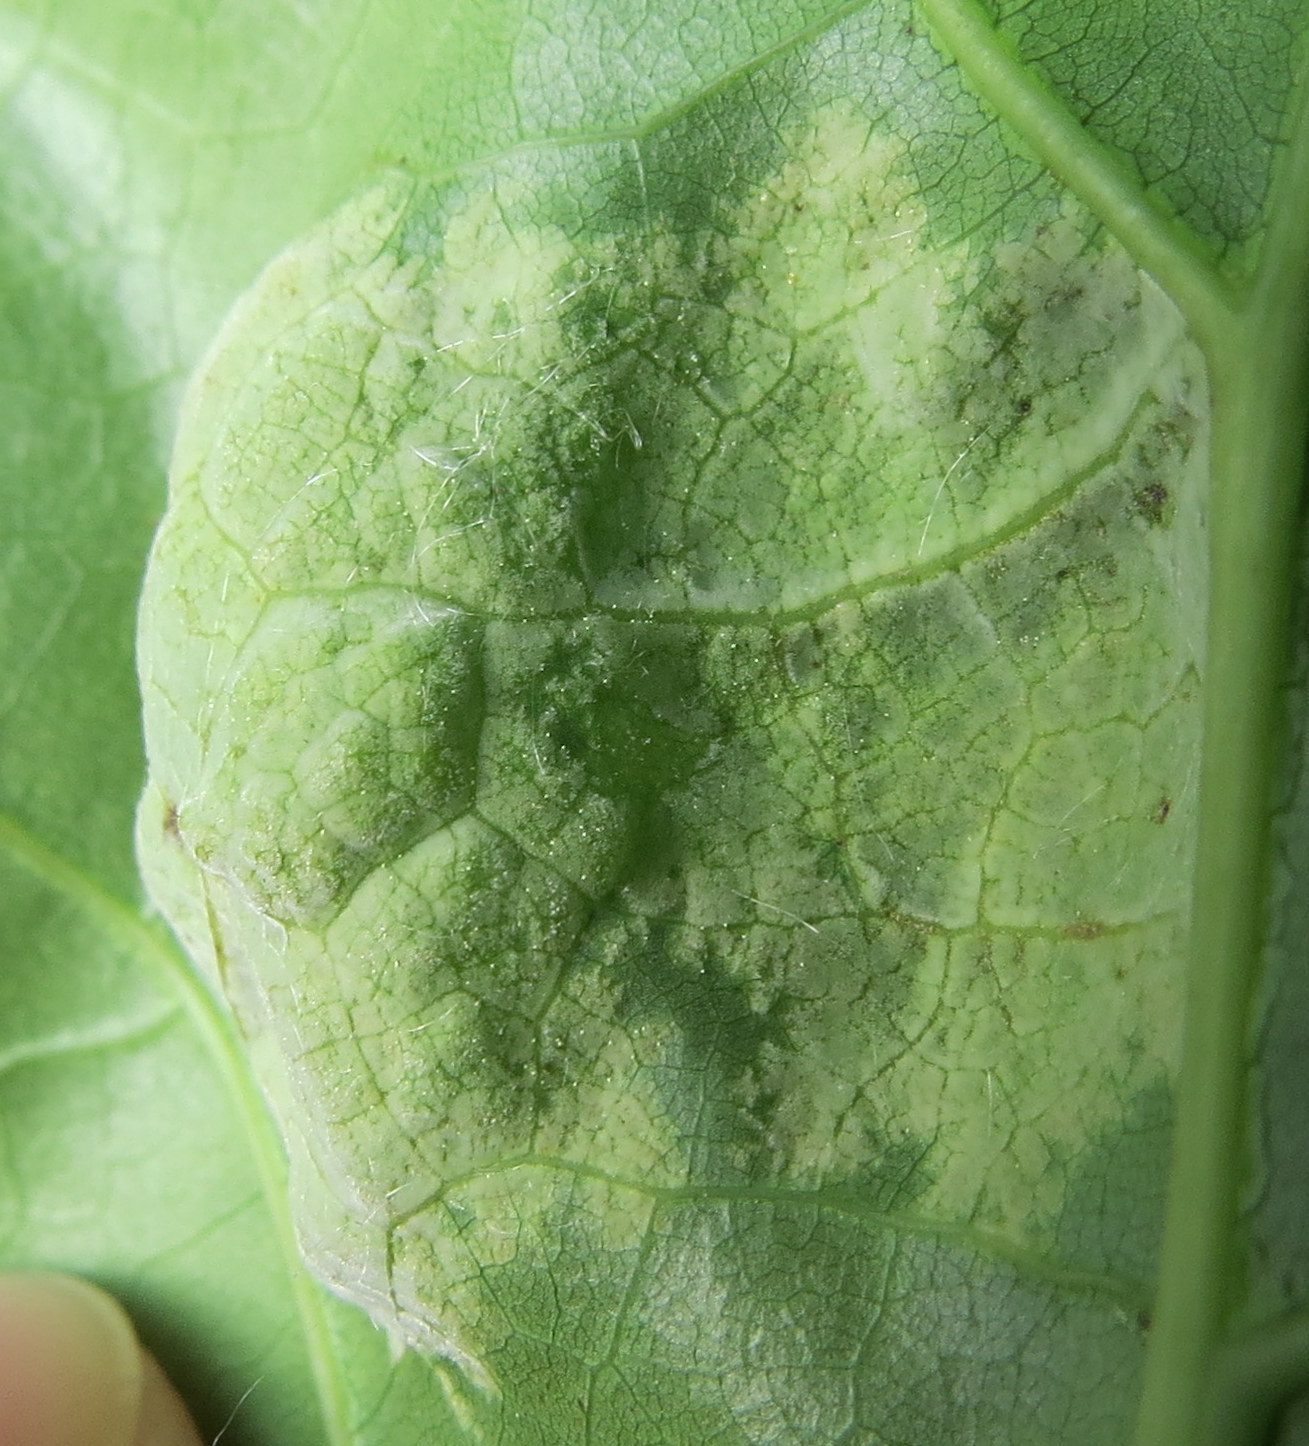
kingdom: Fungi
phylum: Ascomycota
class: Taphrinomycetes
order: Taphrinales
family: Taphrinaceae
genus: Taphrina
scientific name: Taphrina caerulescens
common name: Oak leaf blister
